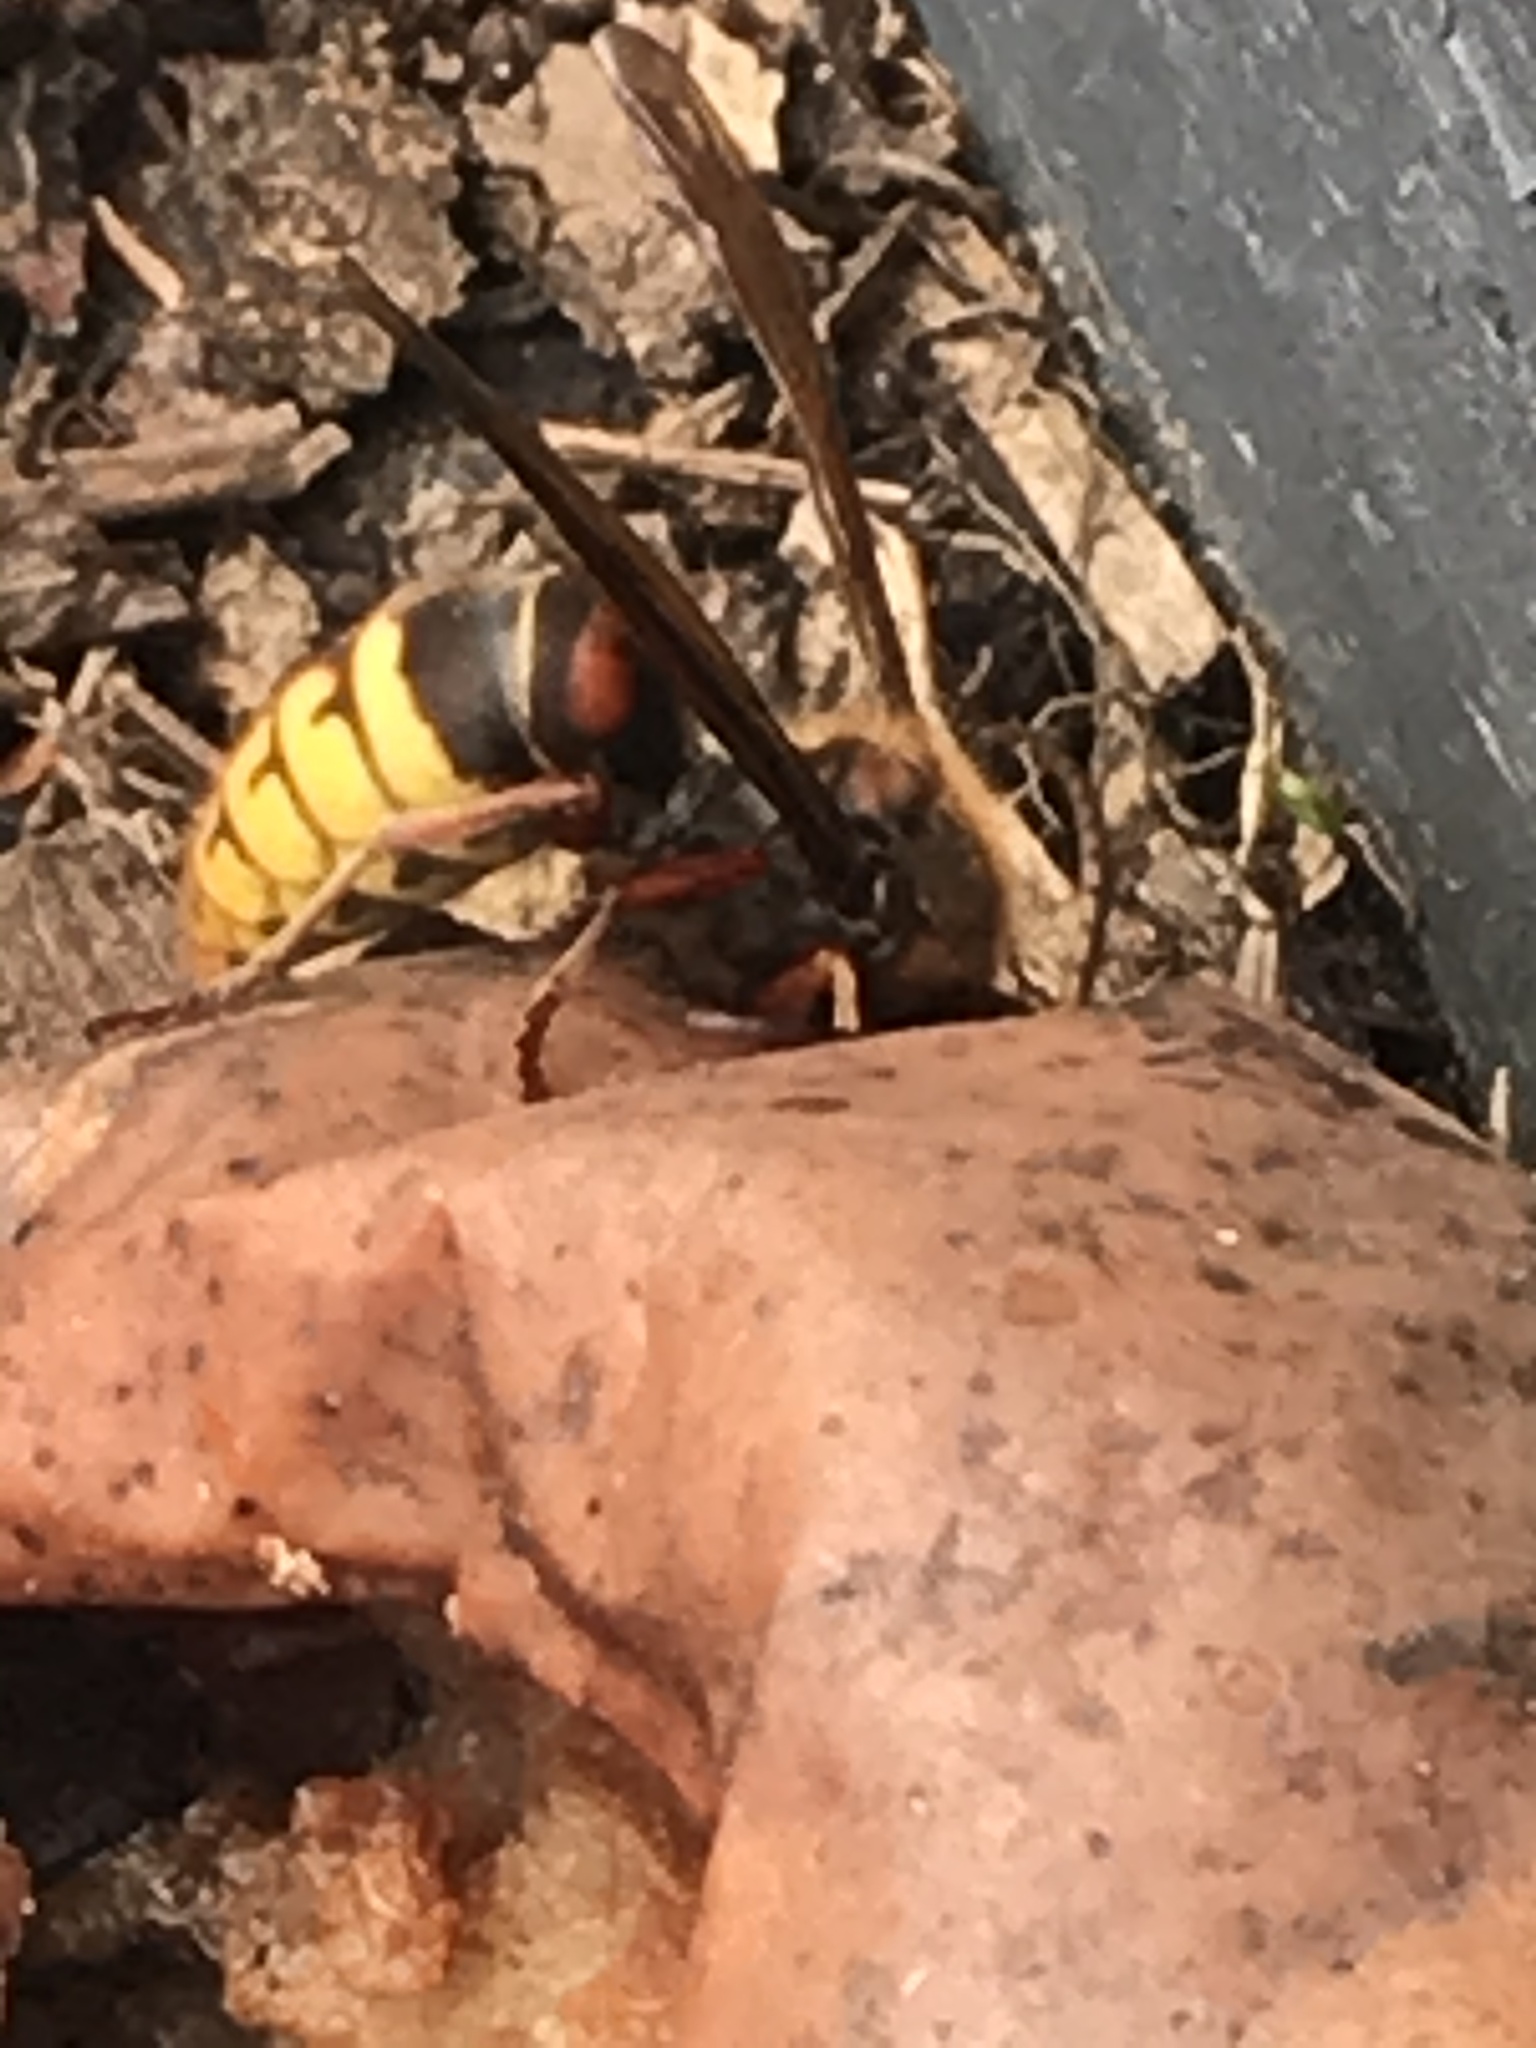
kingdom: Animalia
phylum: Arthropoda
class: Insecta
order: Hymenoptera
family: Vespidae
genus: Vespa
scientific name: Vespa crabro
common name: Hornet
